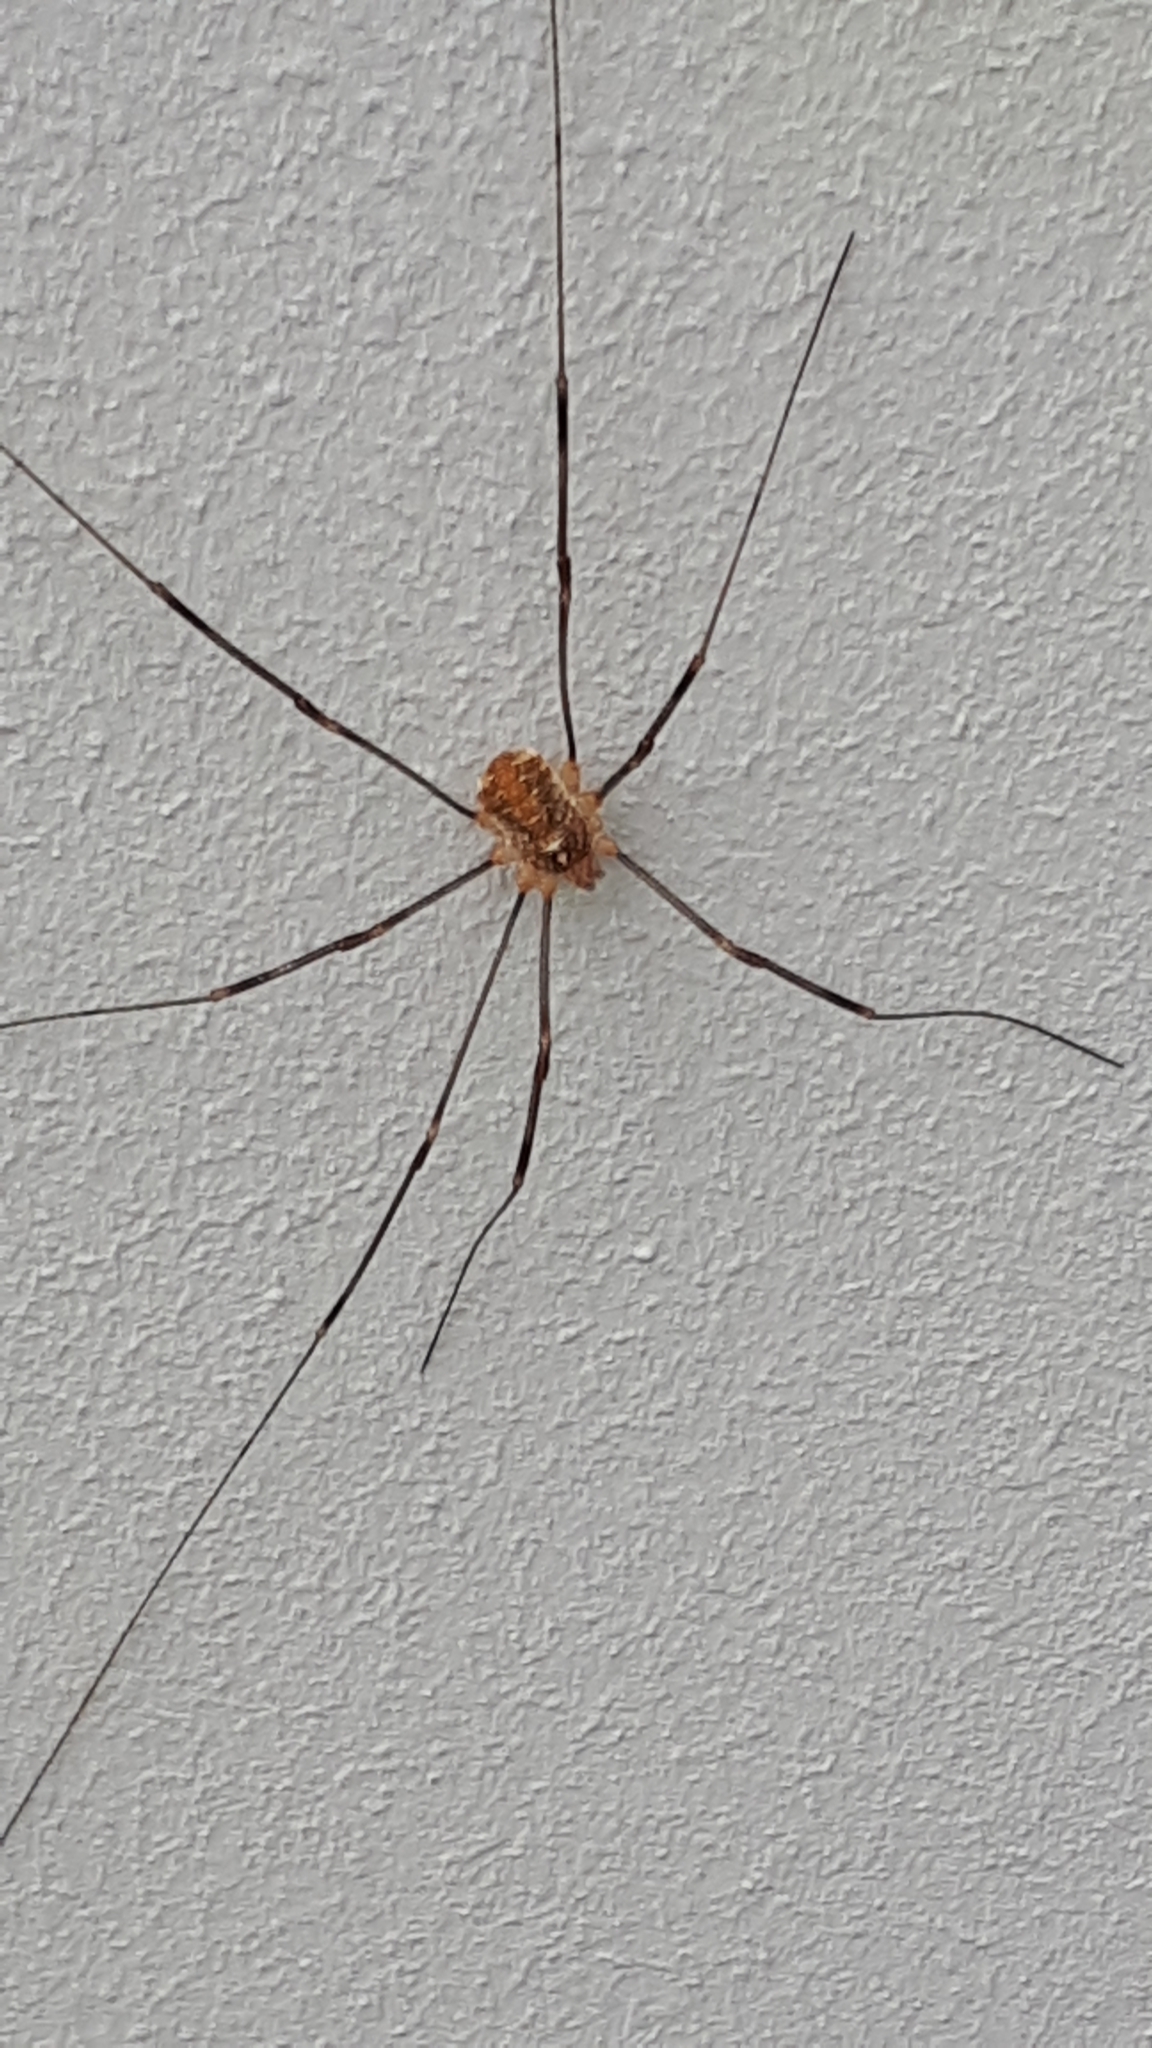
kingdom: Animalia
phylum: Arthropoda
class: Arachnida
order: Opiliones
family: Phalangiidae
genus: Opilio
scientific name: Opilio canestrinii
